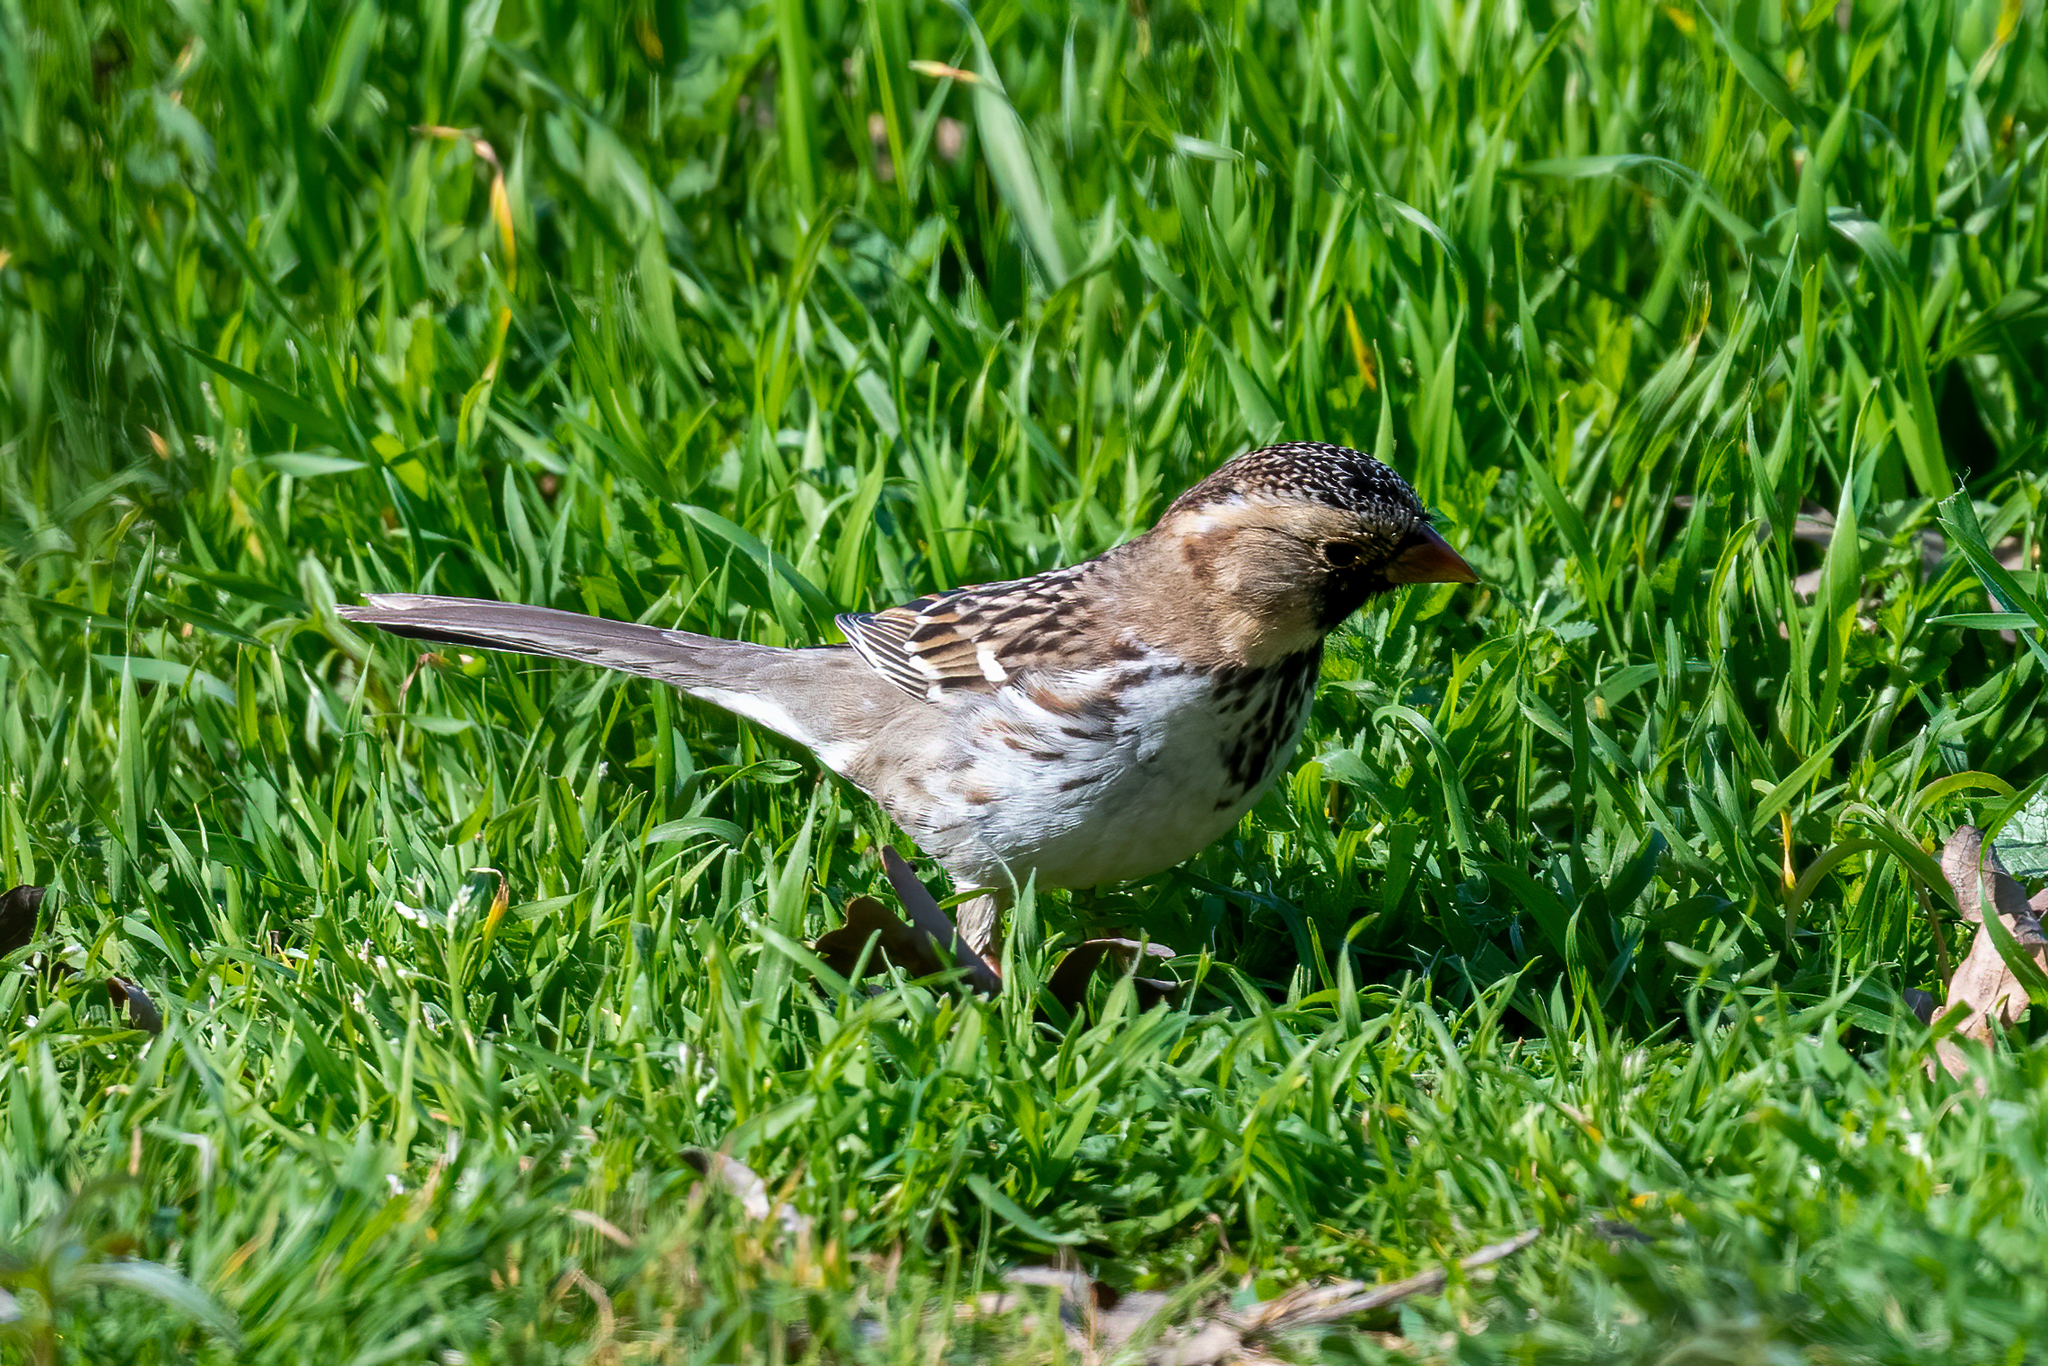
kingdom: Animalia
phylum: Chordata
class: Aves
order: Passeriformes
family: Passerellidae
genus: Zonotrichia
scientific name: Zonotrichia querula
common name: Harris's sparrow
